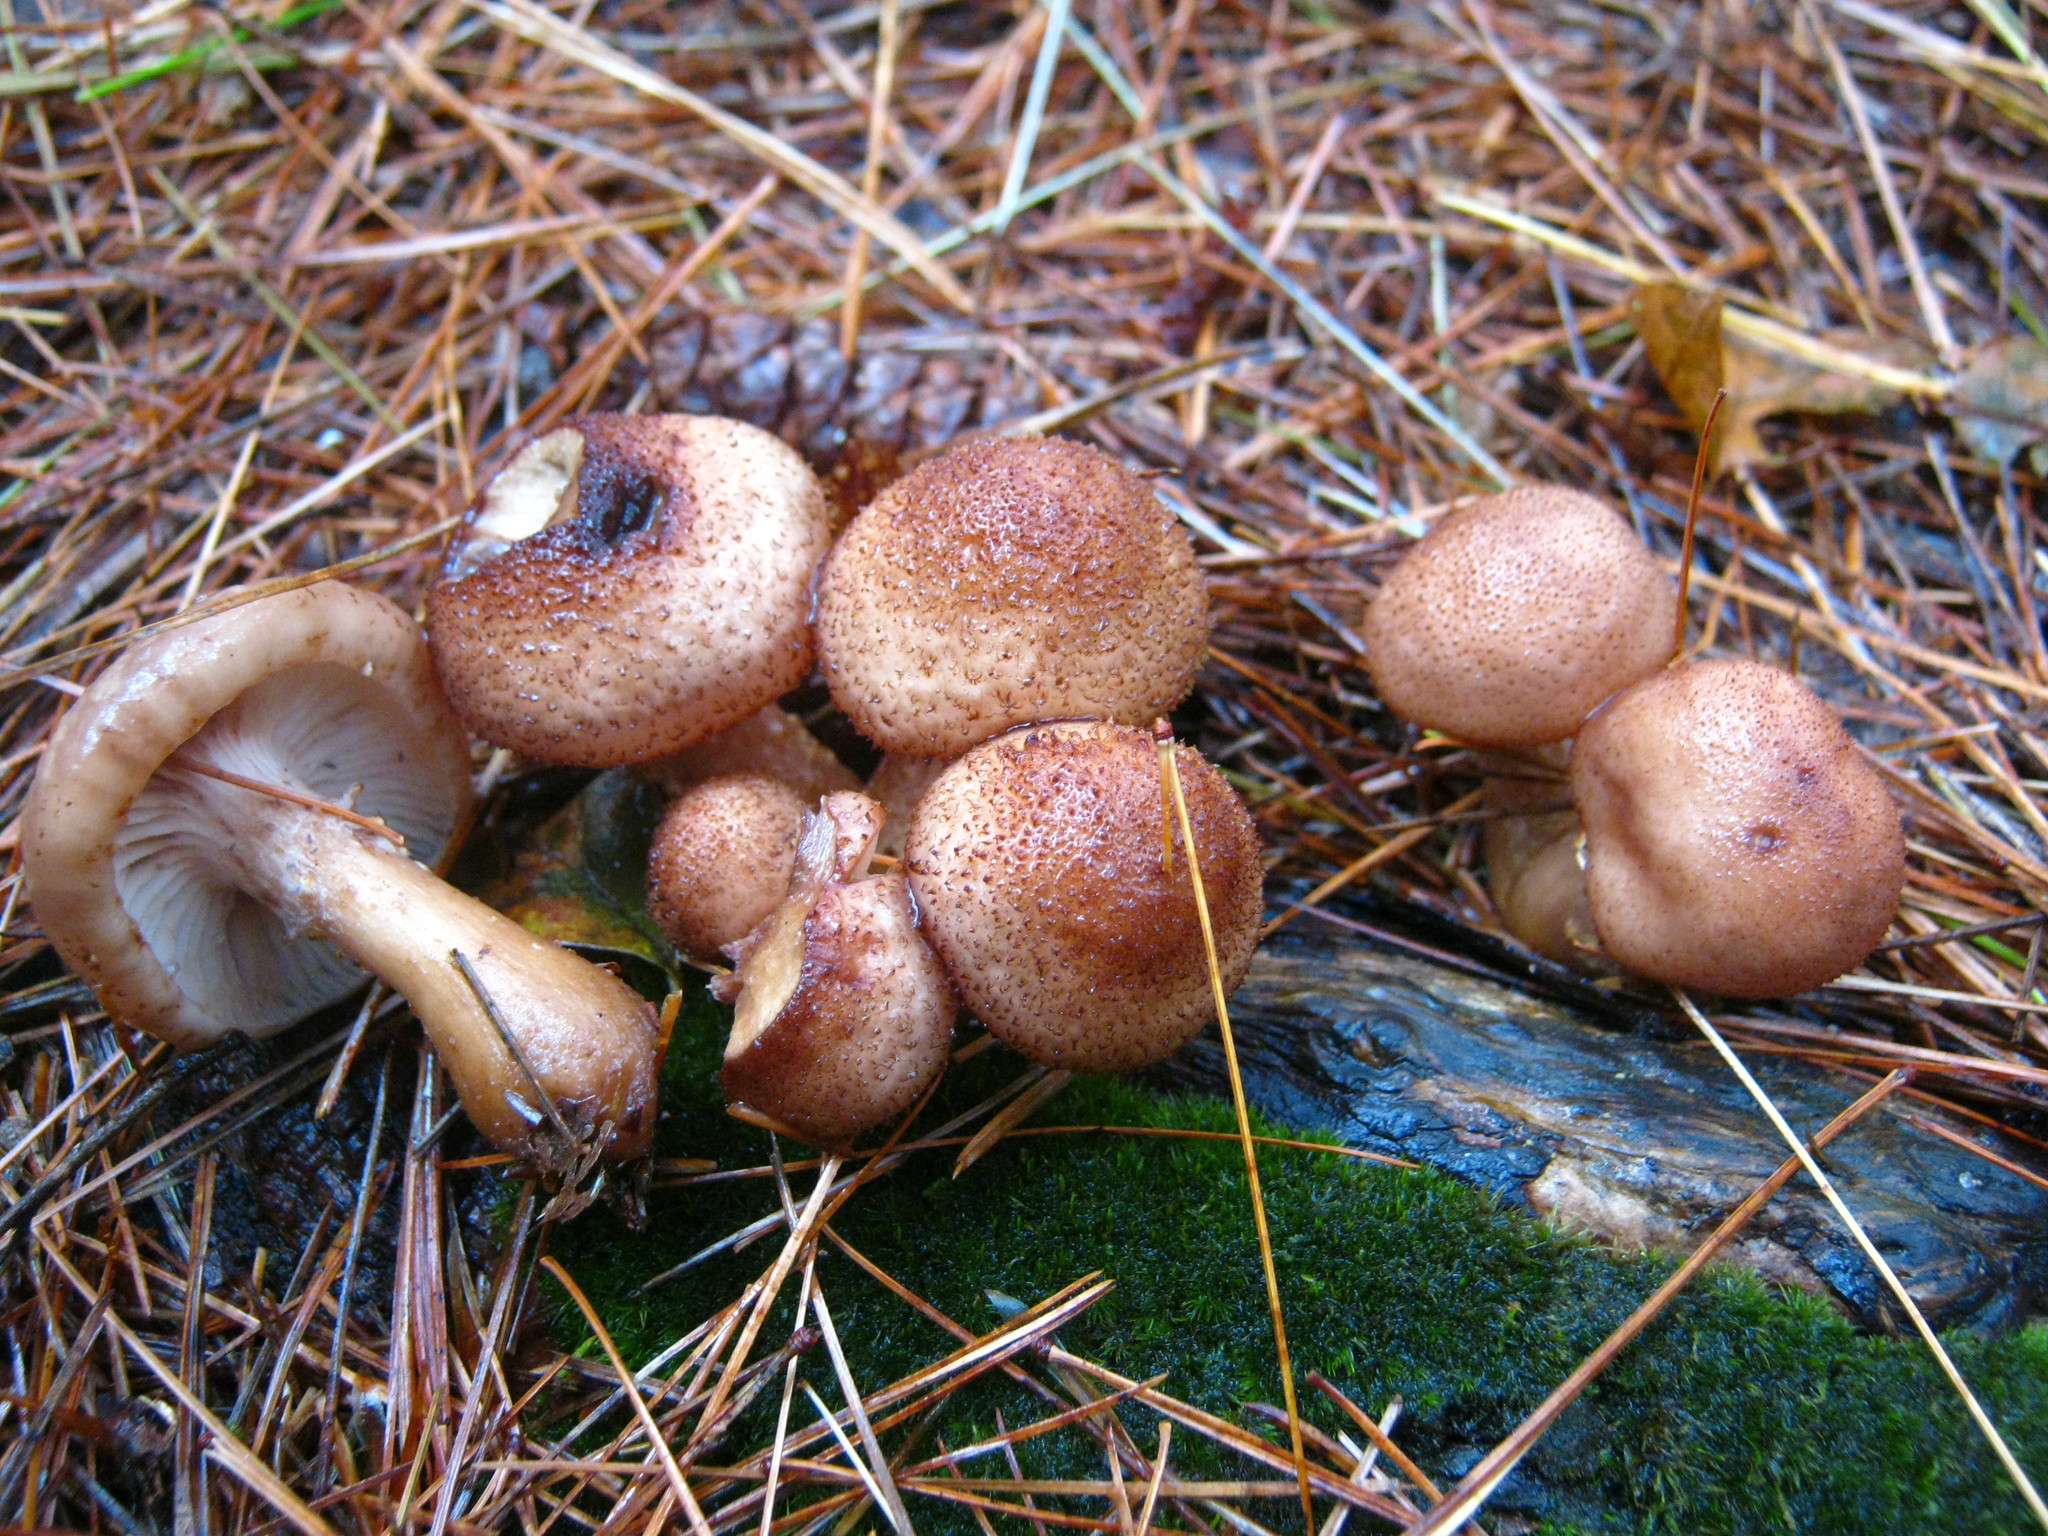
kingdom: Fungi
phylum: Basidiomycota
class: Agaricomycetes
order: Agaricales
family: Physalacriaceae
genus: Armillaria
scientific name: Armillaria ostoyae
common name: Dark honey fungus
